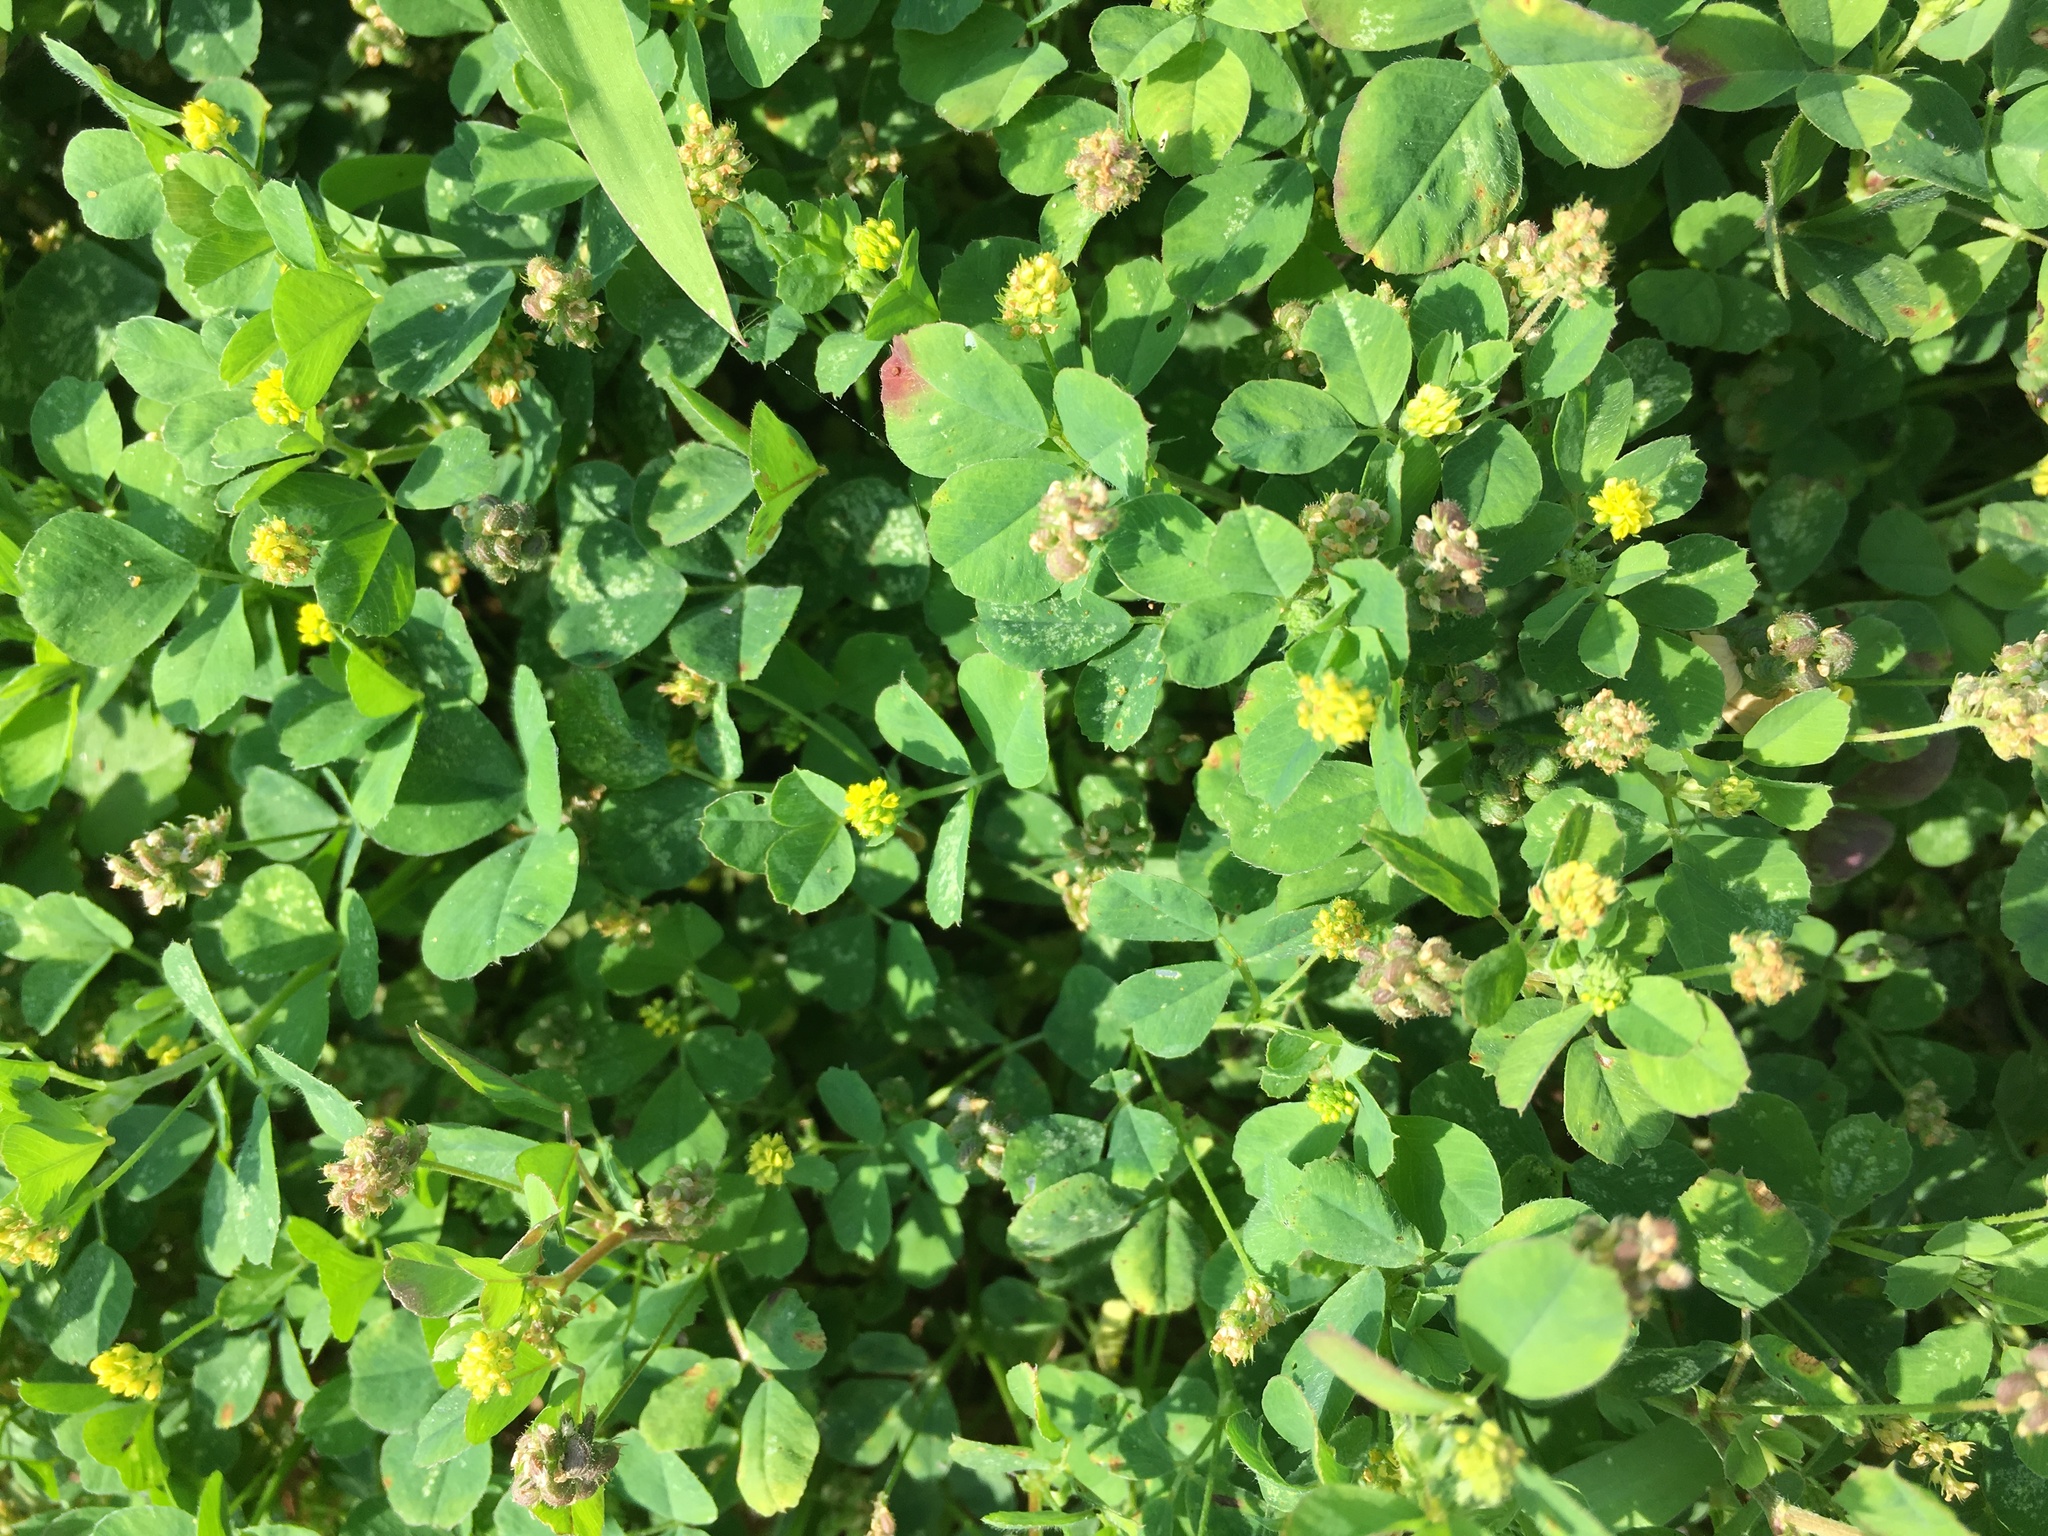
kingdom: Plantae
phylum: Tracheophyta
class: Magnoliopsida
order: Fabales
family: Fabaceae
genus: Medicago
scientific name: Medicago lupulina
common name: Black medick
